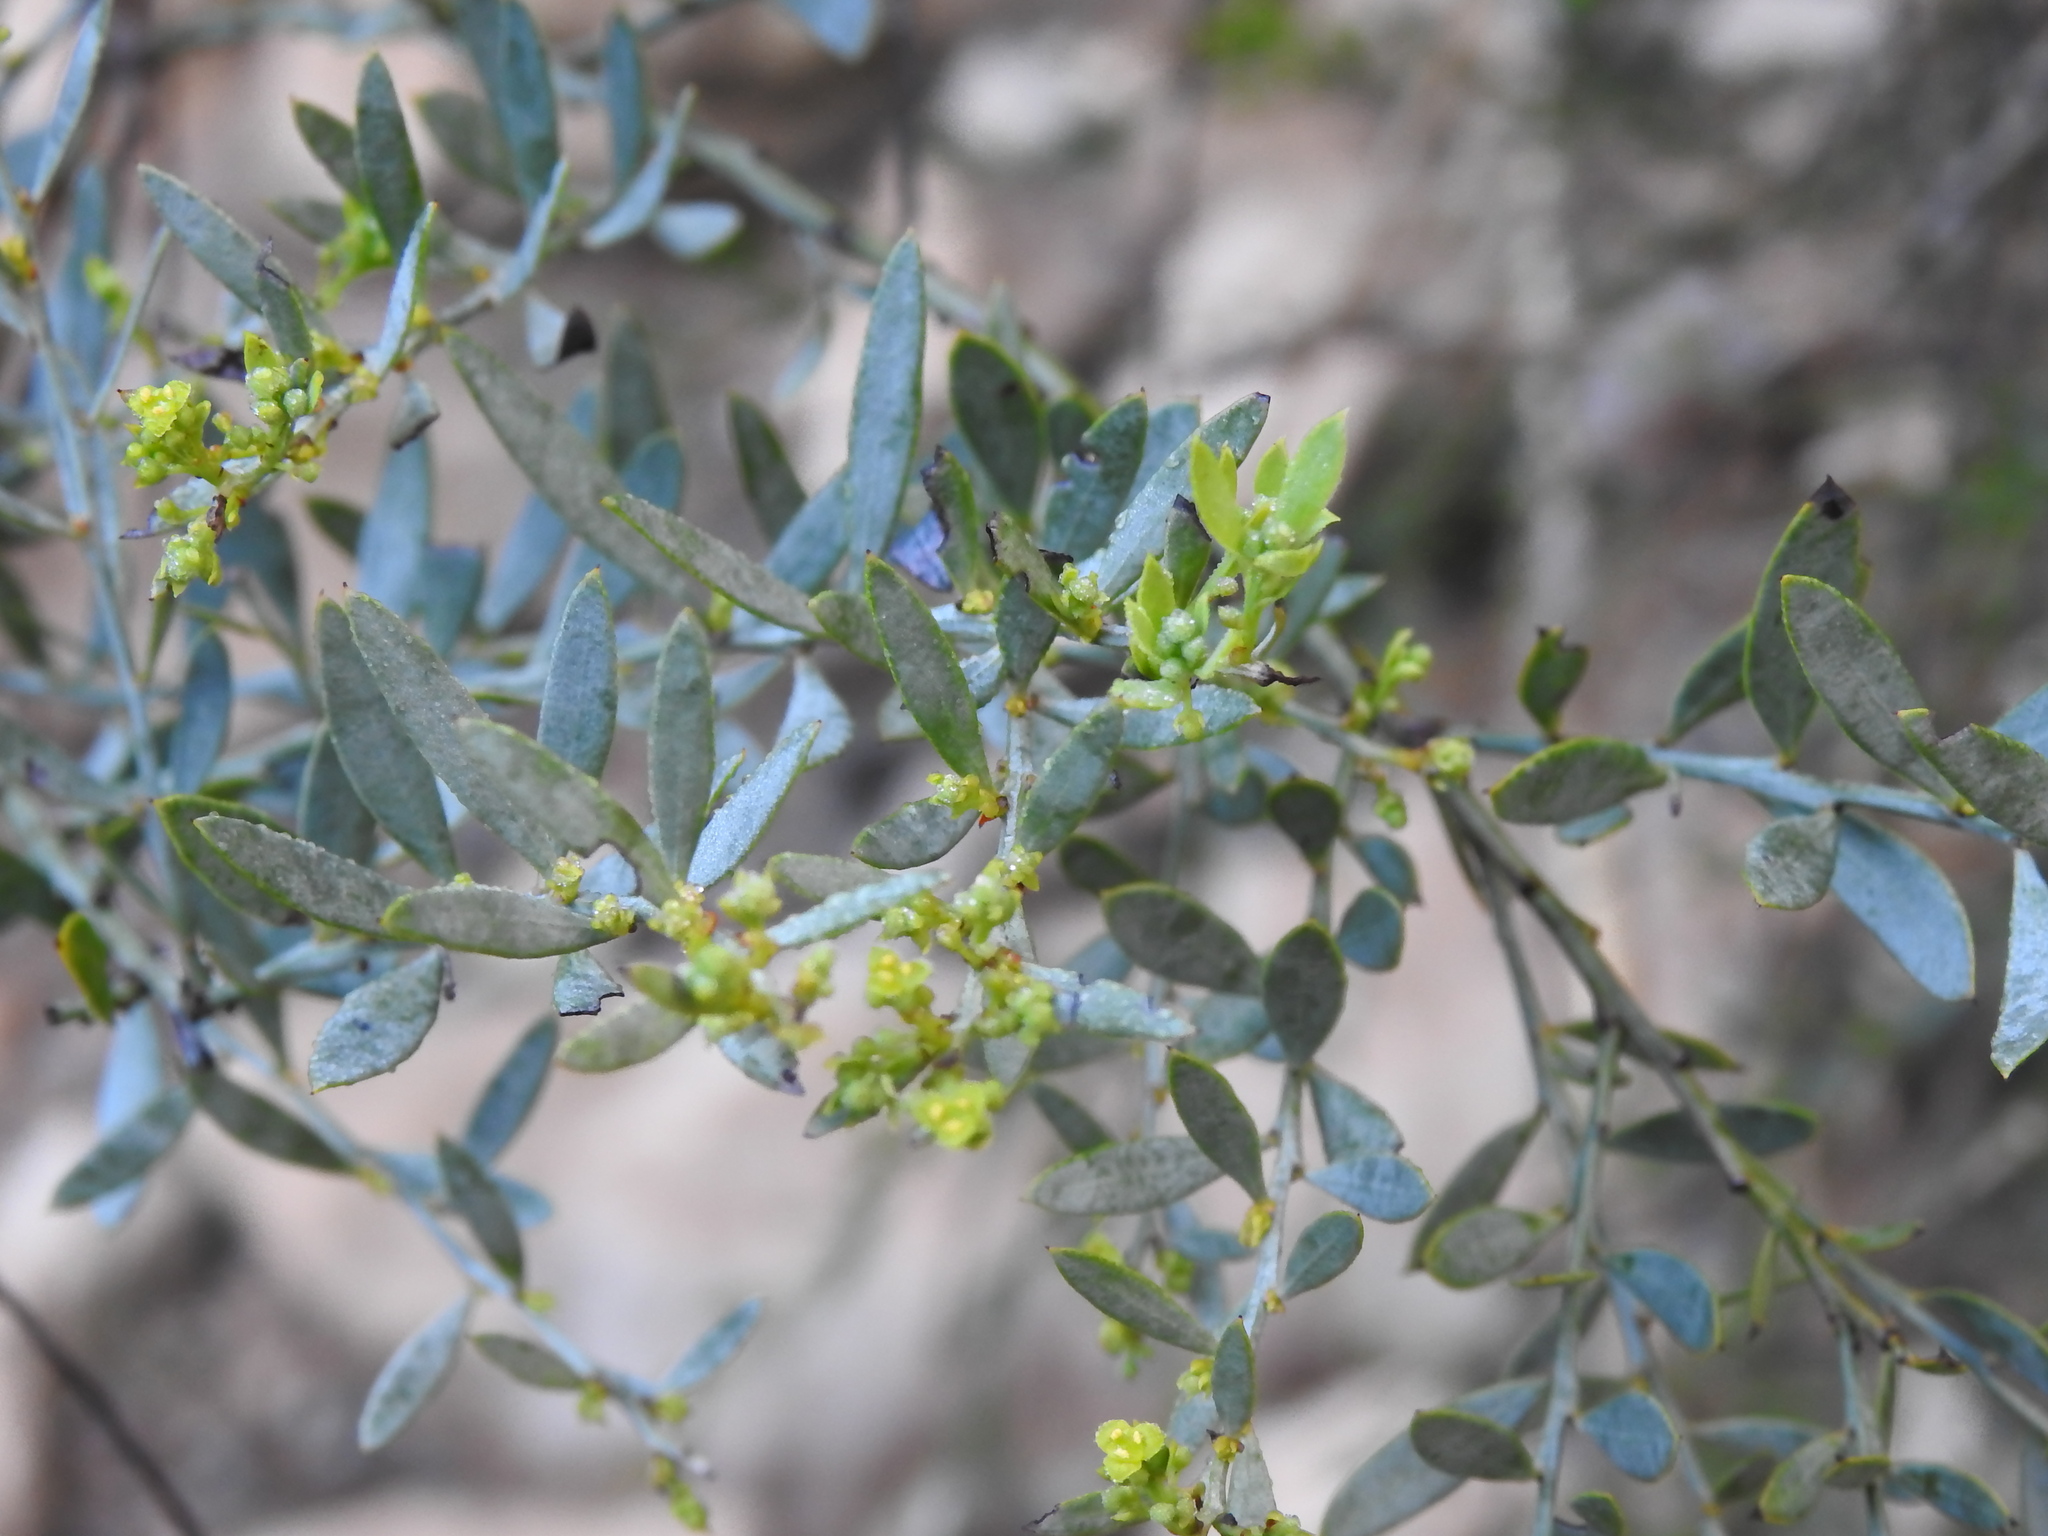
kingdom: Plantae
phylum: Tracheophyta
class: Magnoliopsida
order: Santalales
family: Santalaceae
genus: Osyris
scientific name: Osyris lanceolata
